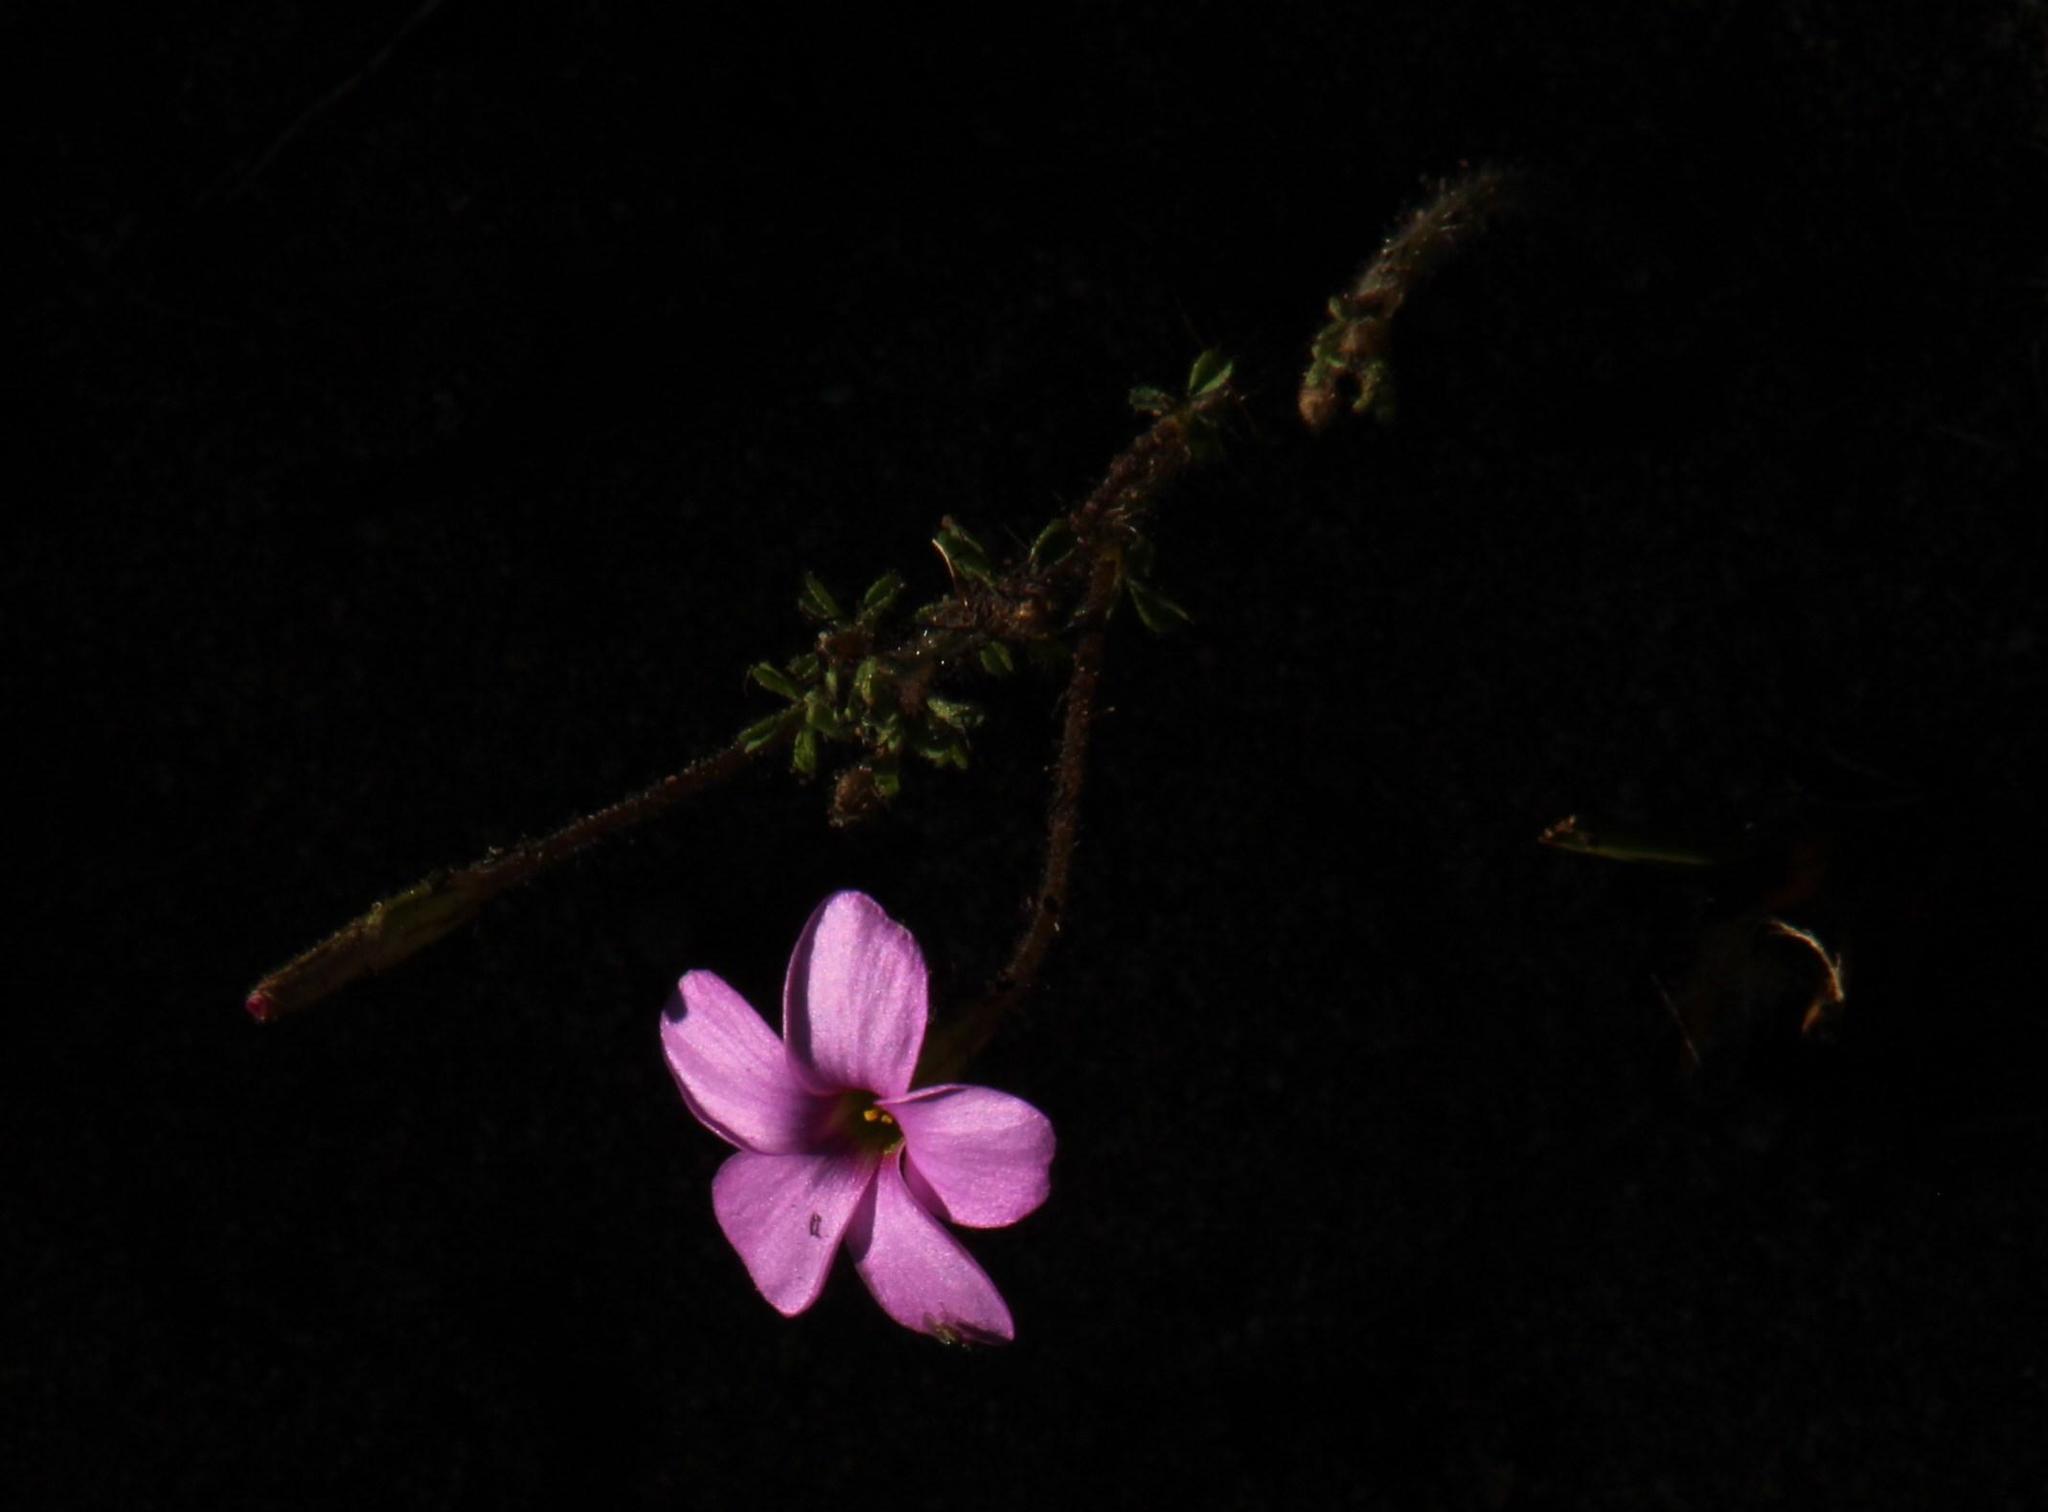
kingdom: Plantae
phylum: Tracheophyta
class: Magnoliopsida
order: Oxalidales
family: Oxalidaceae
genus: Oxalis
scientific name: Oxalis giftbergensis
